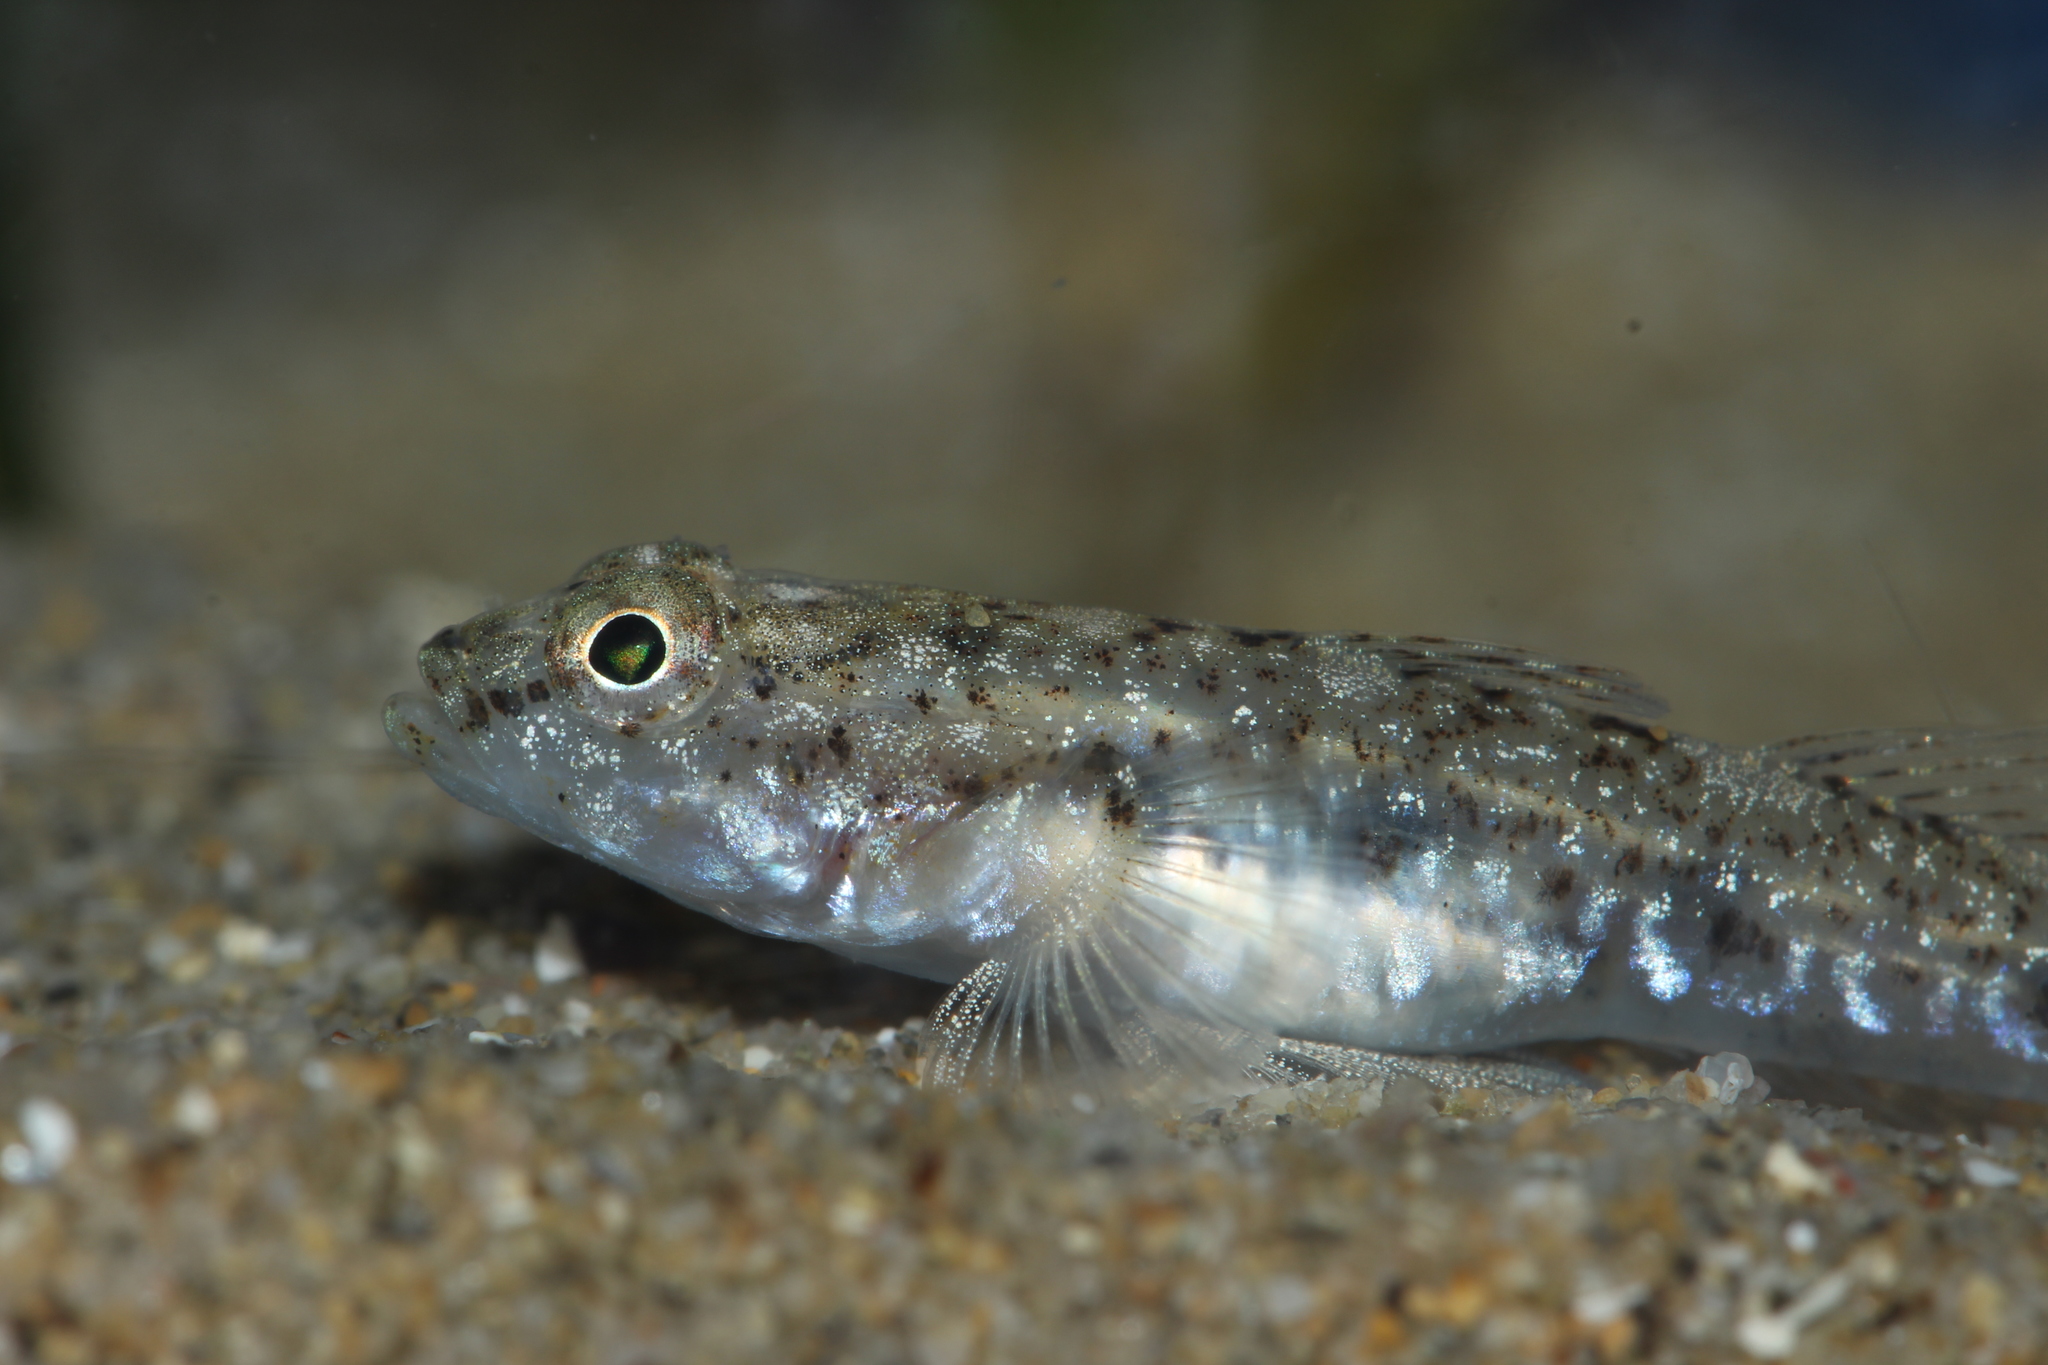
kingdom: Animalia
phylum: Chordata
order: Perciformes
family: Gobiidae
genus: Pomatoschistus
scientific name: Pomatoschistus marmoratus
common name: Marbled goby
